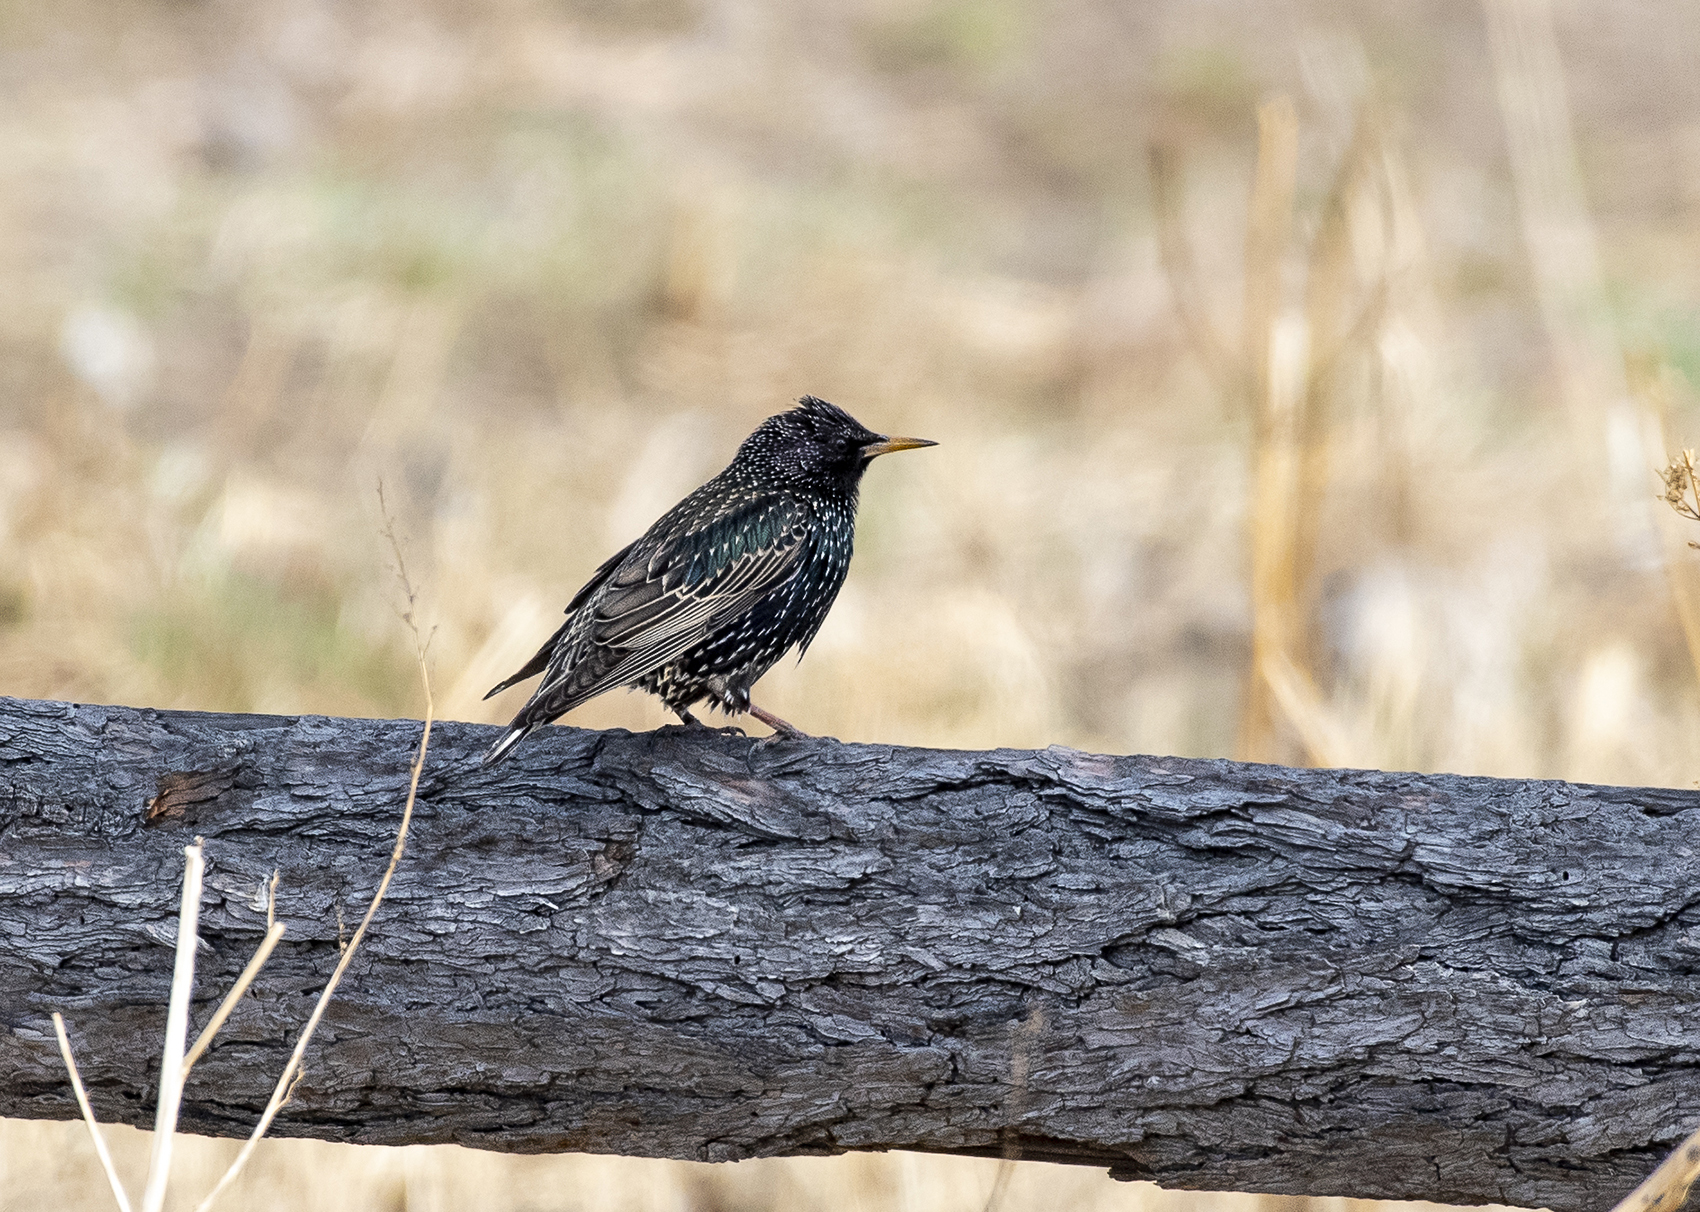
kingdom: Animalia
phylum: Chordata
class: Aves
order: Passeriformes
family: Sturnidae
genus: Sturnus
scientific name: Sturnus vulgaris
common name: Common starling
